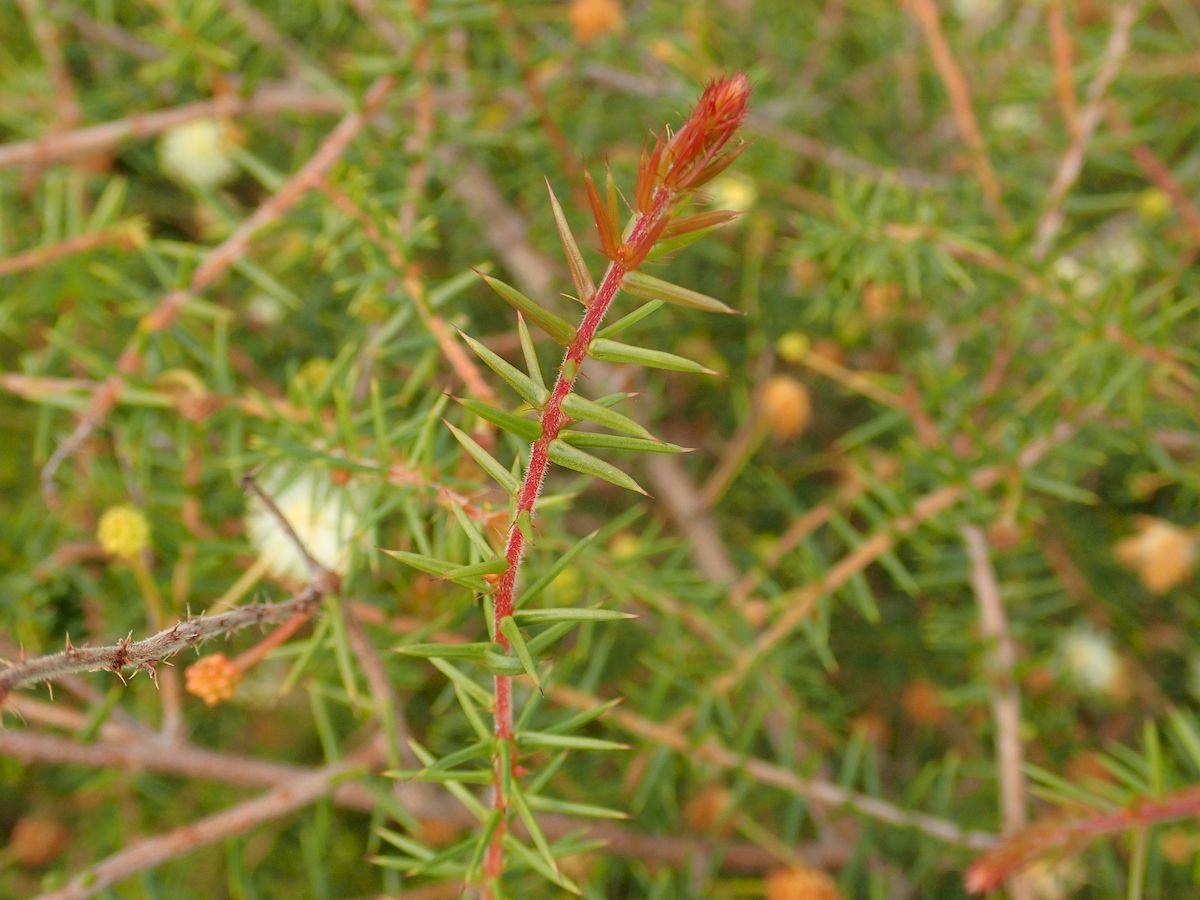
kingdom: Plantae
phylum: Tracheophyta
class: Magnoliopsida
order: Fabales
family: Fabaceae
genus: Acacia
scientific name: Acacia ulicifolia
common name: Juniper wattle
